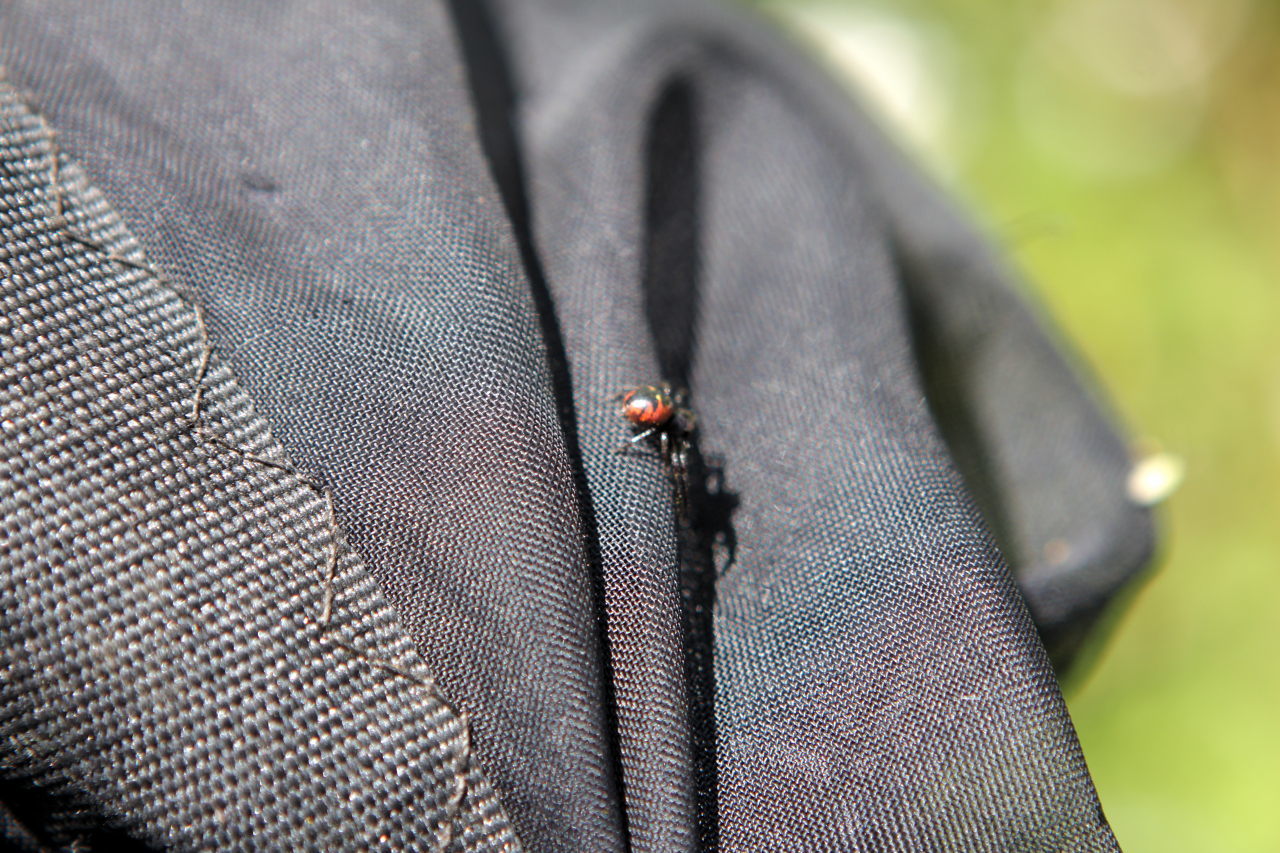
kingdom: Animalia
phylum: Arthropoda
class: Arachnida
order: Araneae
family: Thomisidae
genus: Synema
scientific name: Synema globosum
